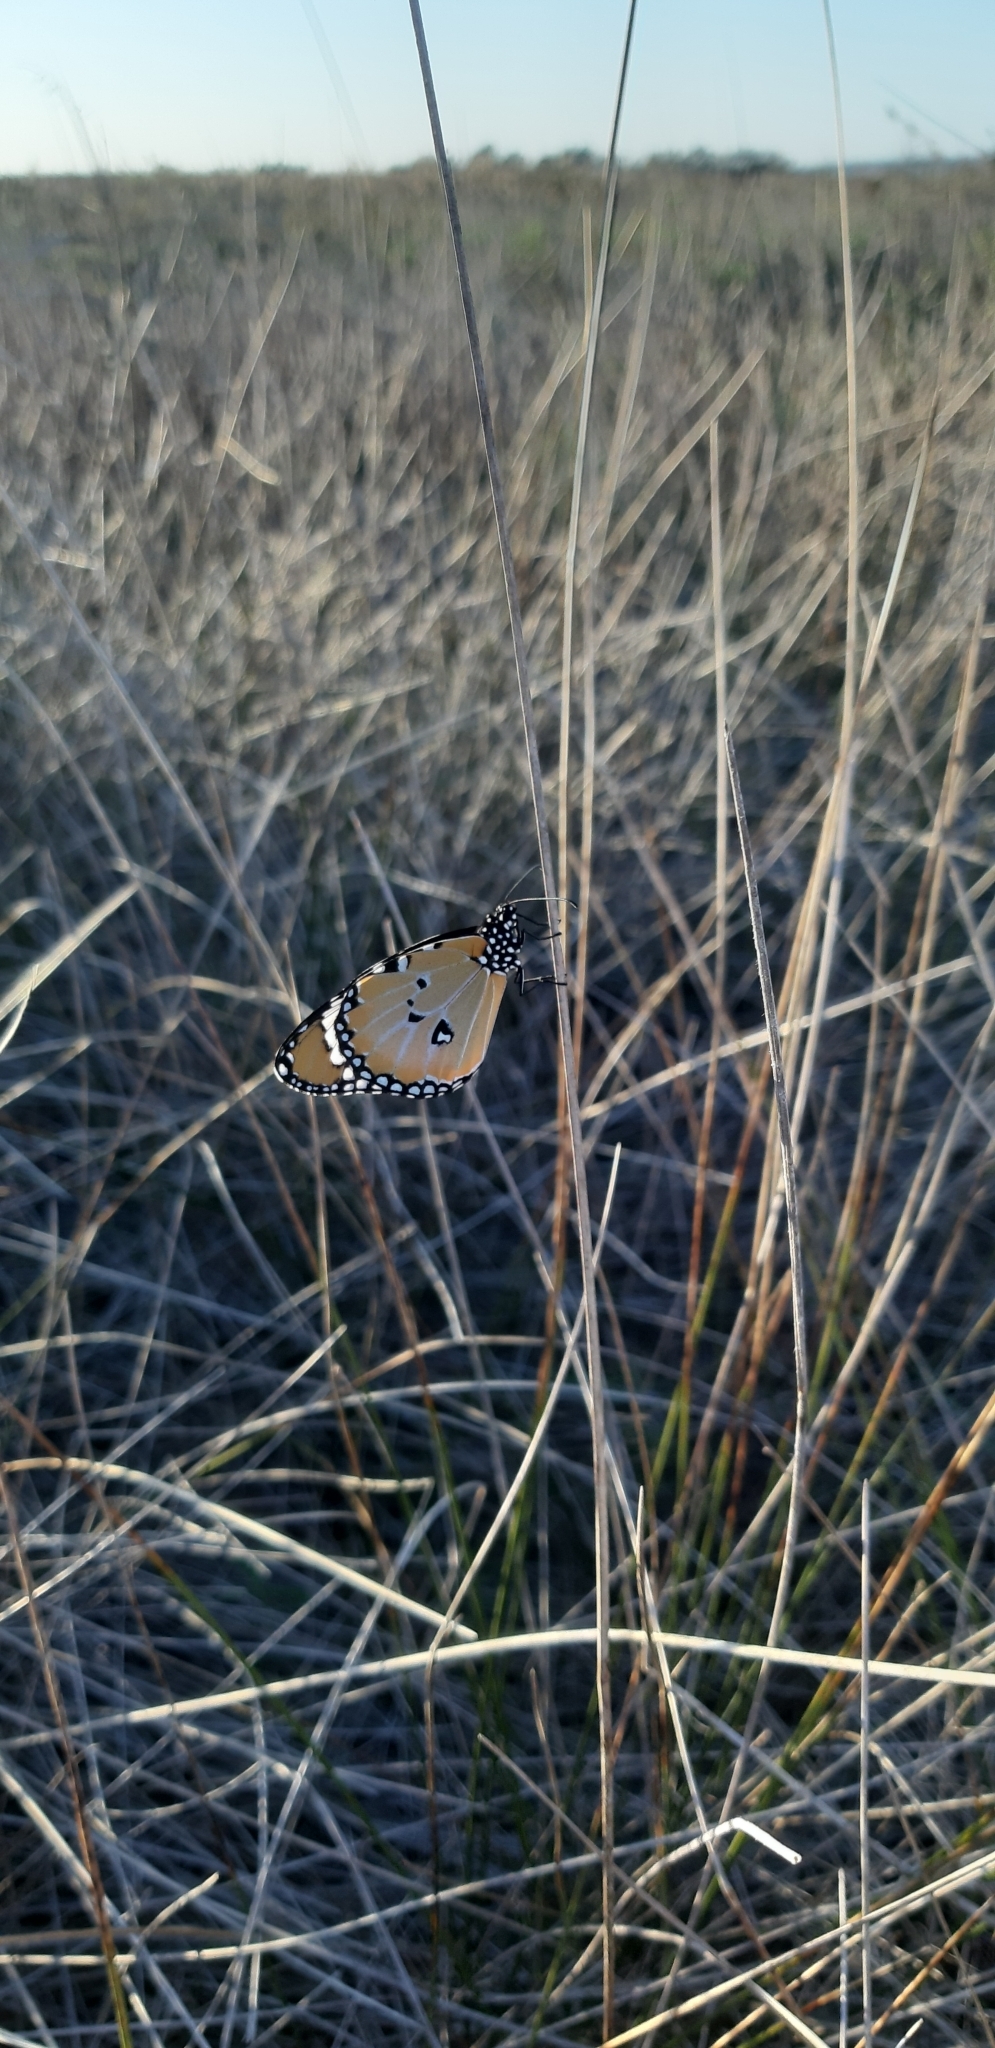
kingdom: Animalia
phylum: Arthropoda
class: Insecta
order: Lepidoptera
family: Nymphalidae
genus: Danaus
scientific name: Danaus chrysippus
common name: Plain tiger
